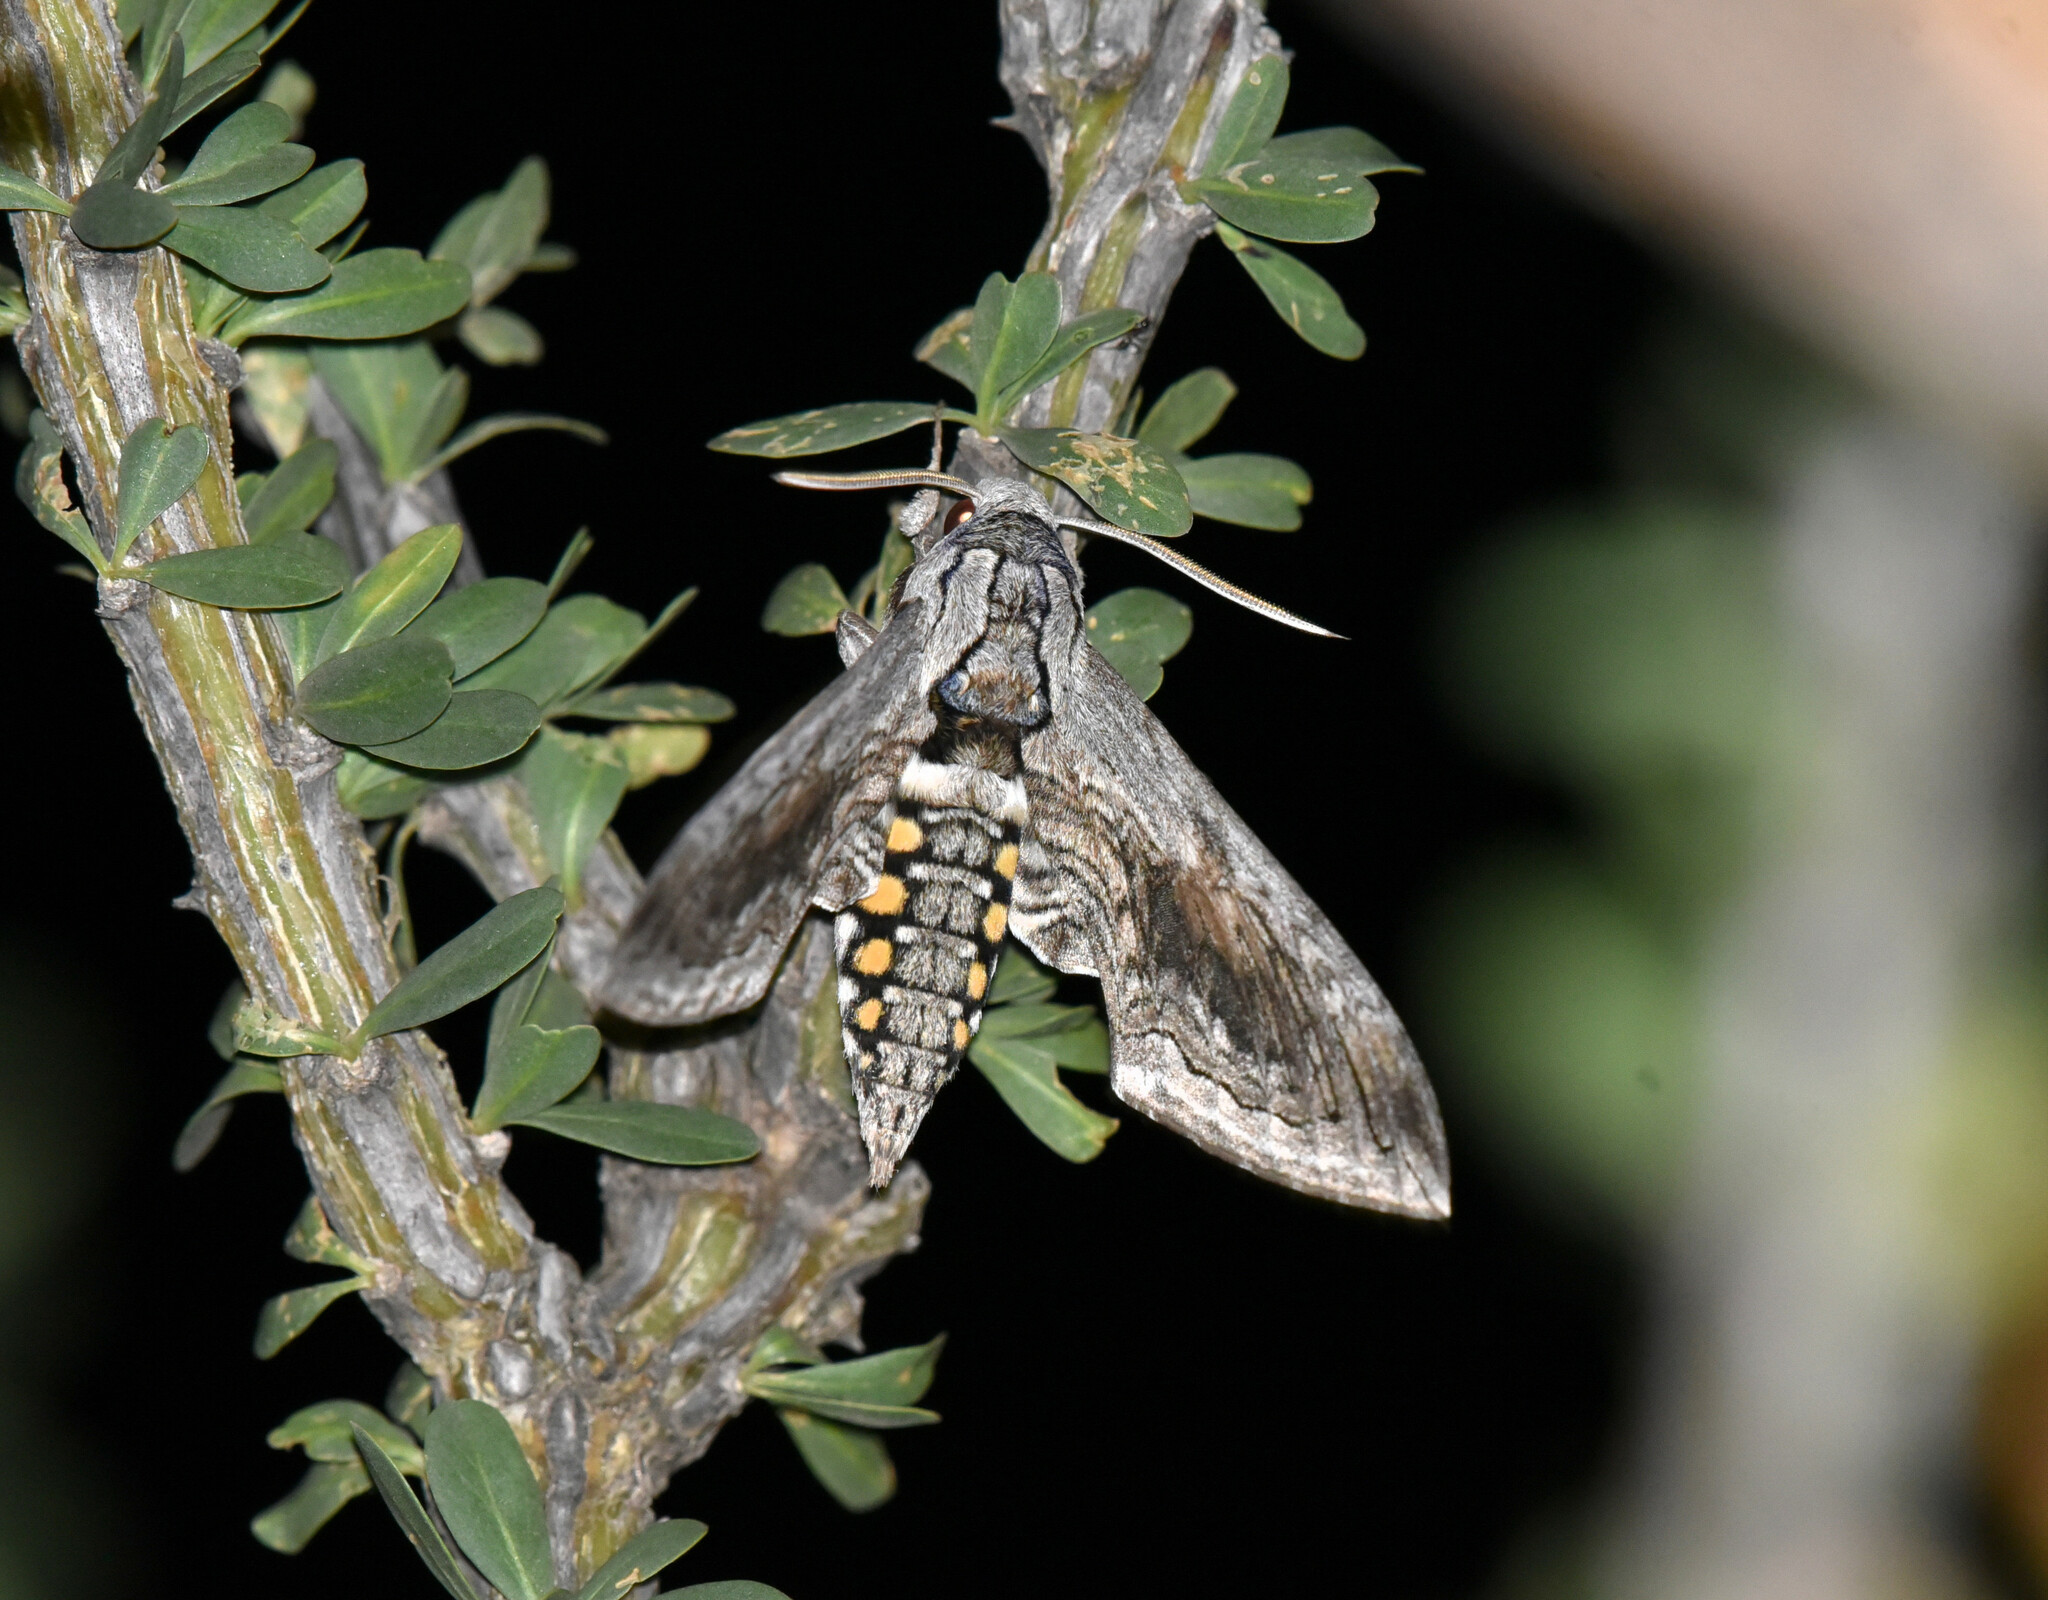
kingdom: Animalia
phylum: Arthropoda
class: Insecta
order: Lepidoptera
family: Sphingidae
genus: Manduca
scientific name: Manduca quinquemaculatus
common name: Five-spotted hawk-moth
